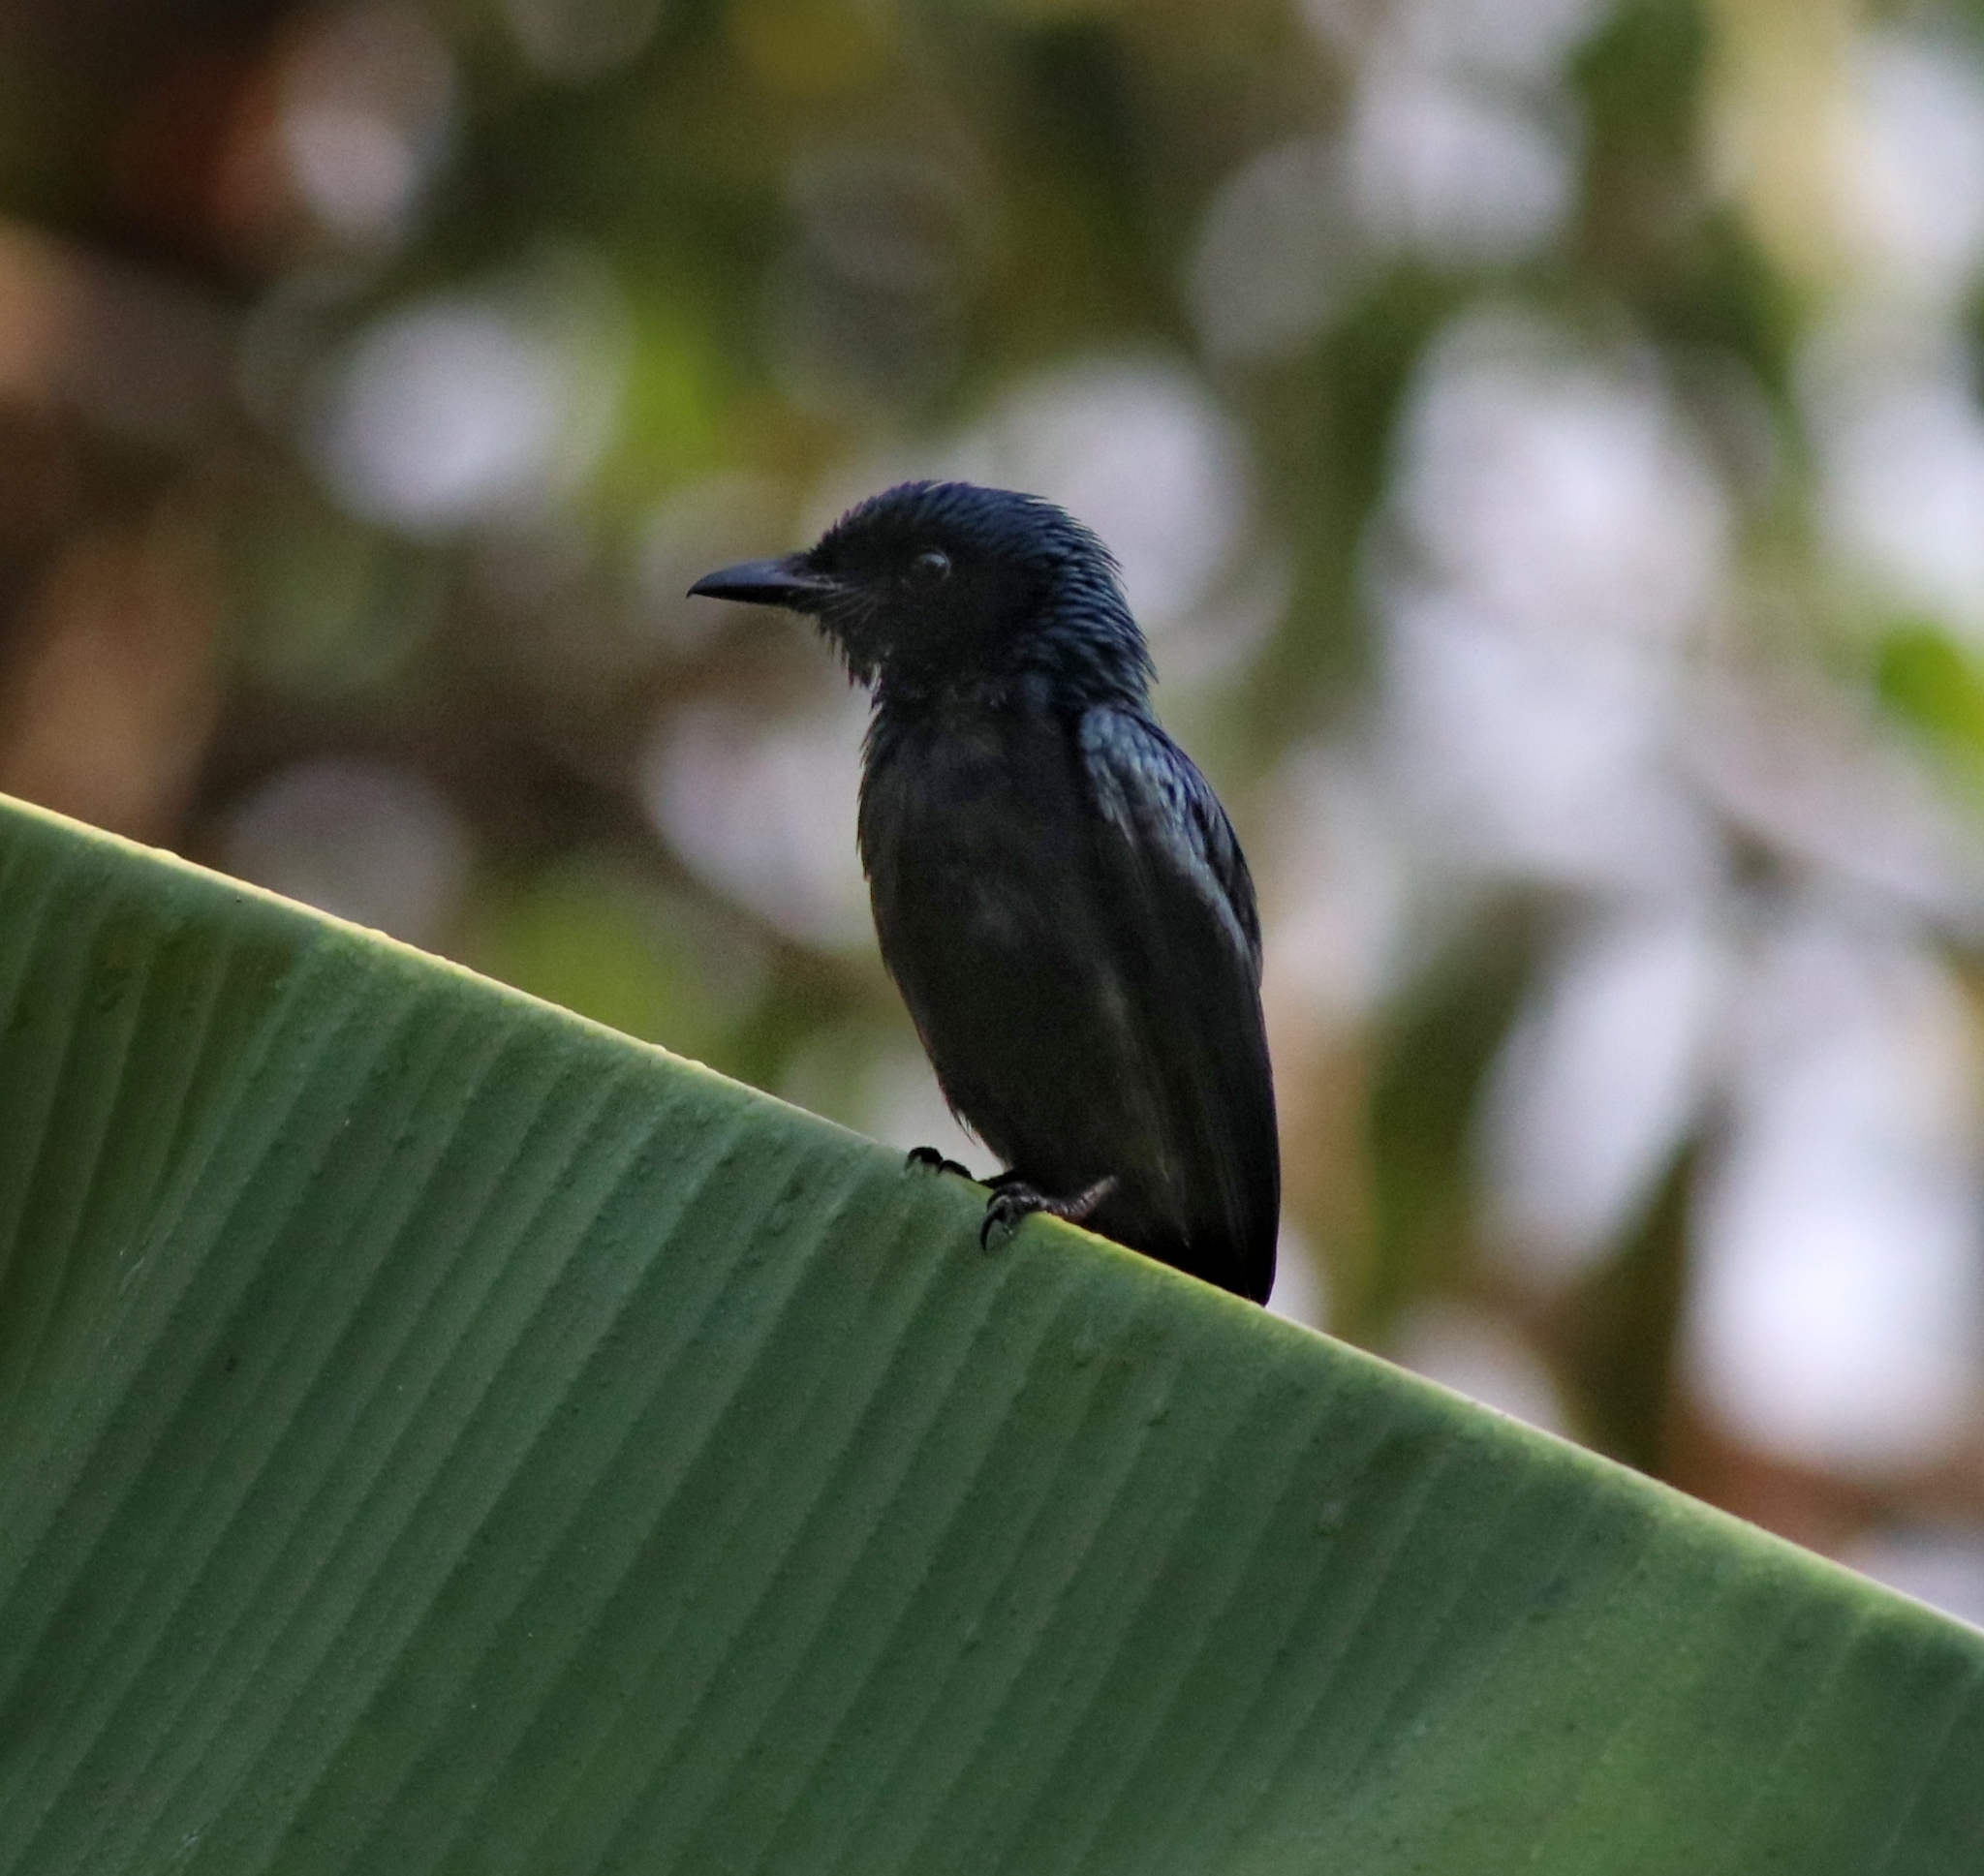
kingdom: Animalia
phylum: Chordata
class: Aves
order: Passeriformes
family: Dicruridae
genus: Dicrurus
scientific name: Dicrurus aeneus
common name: Bronzed drongo
